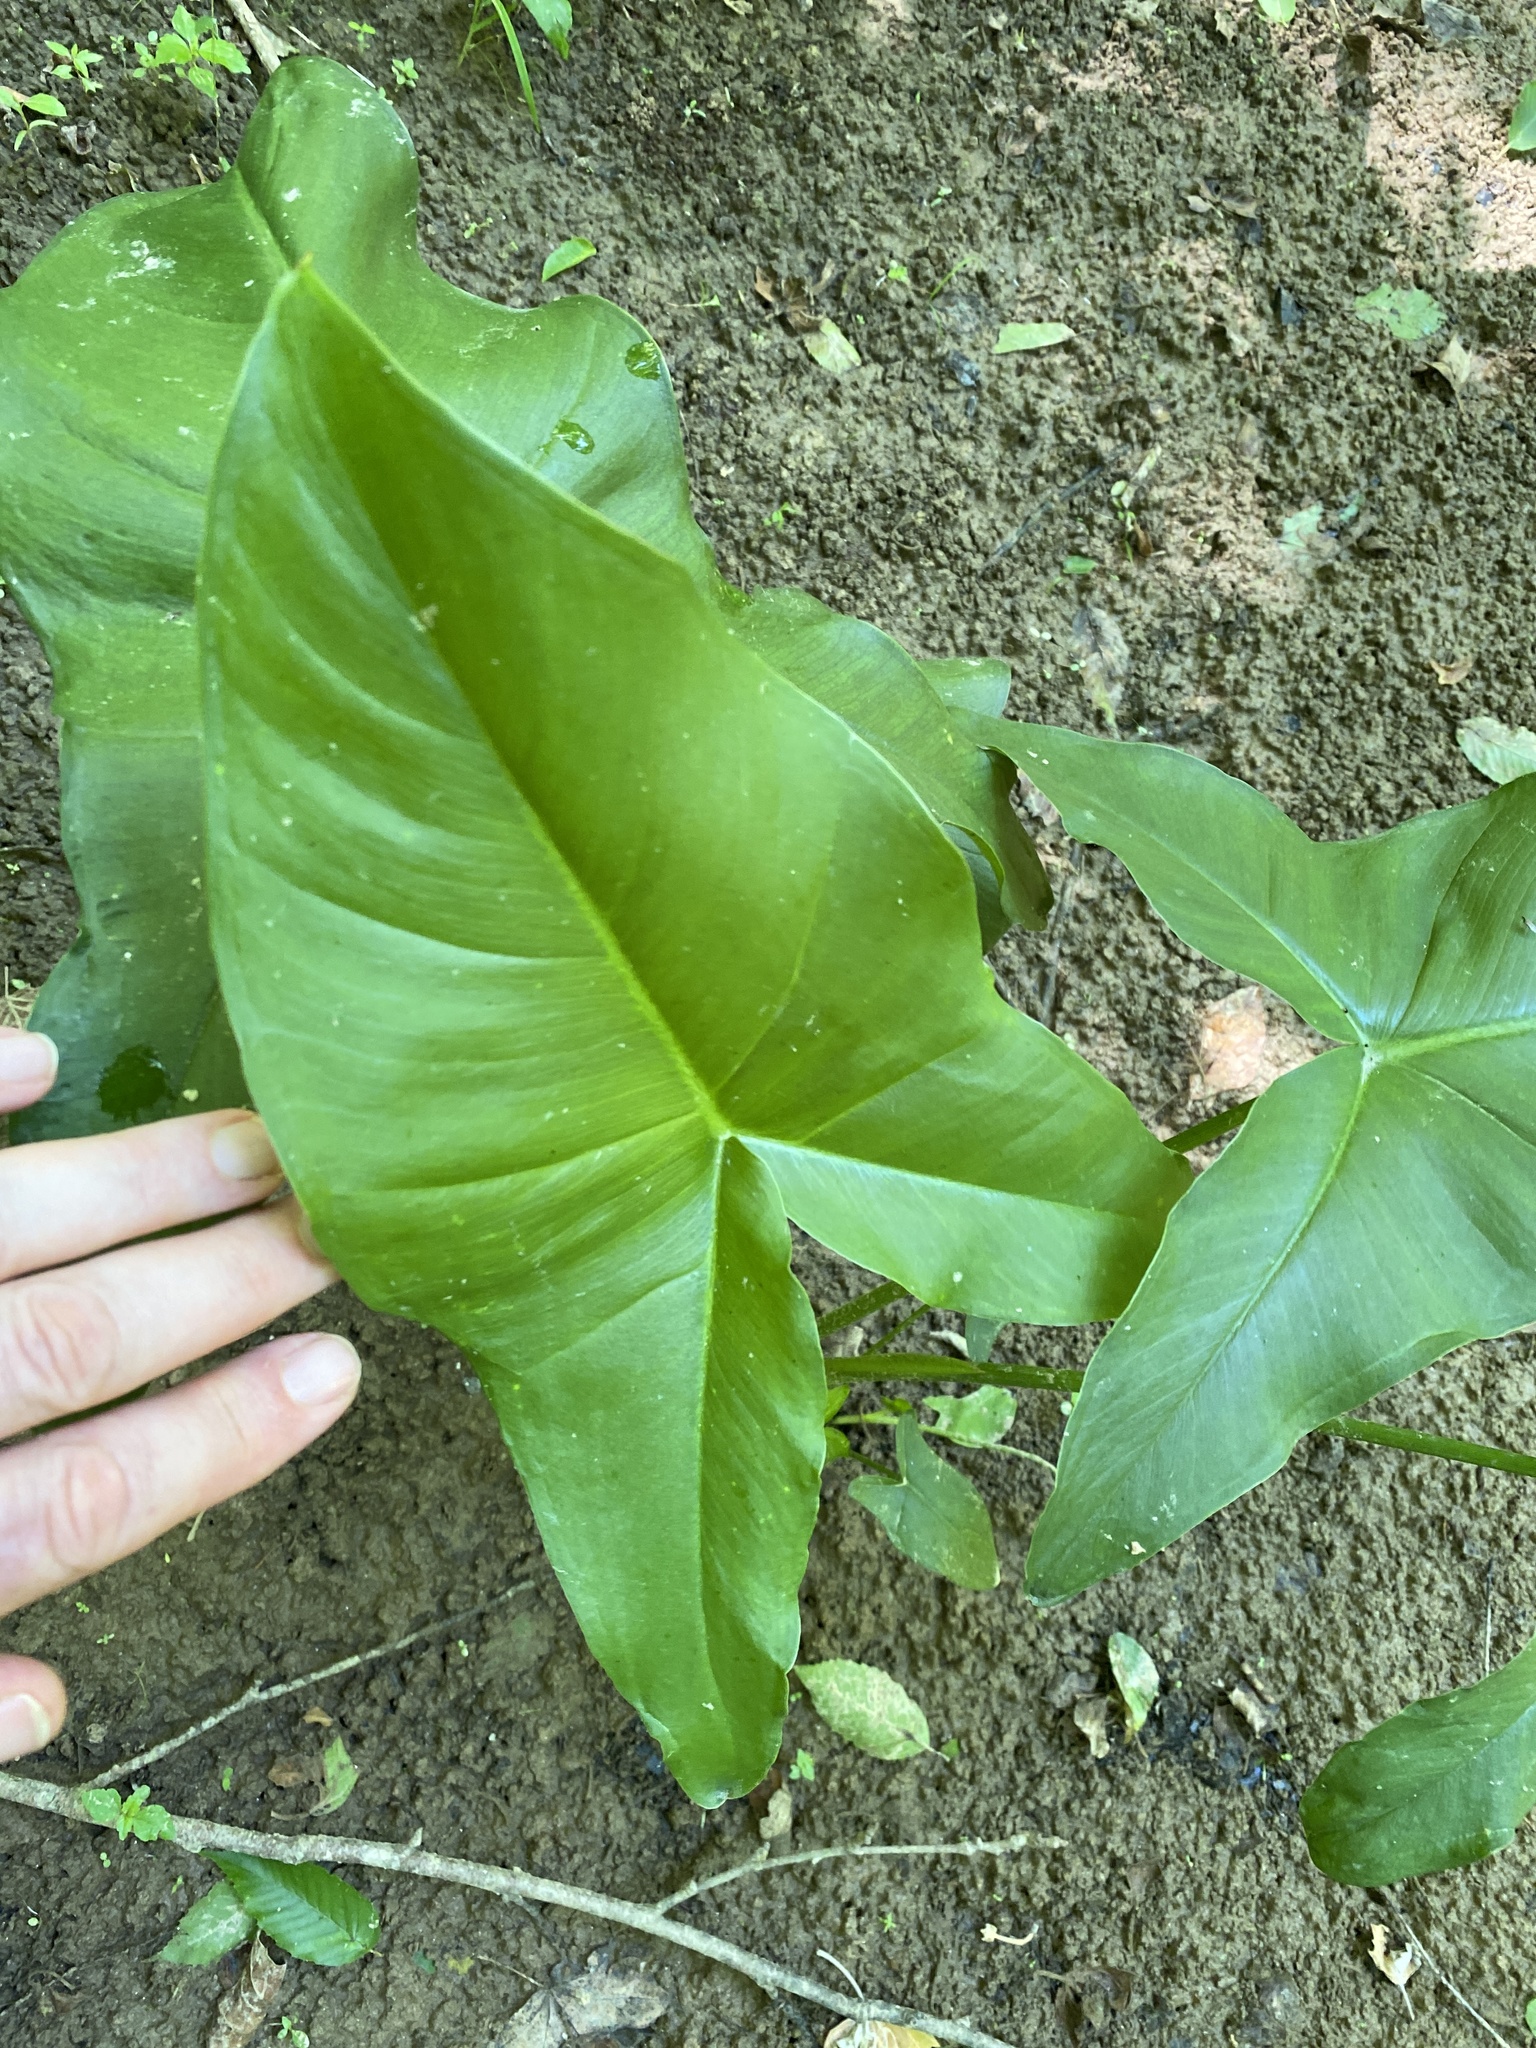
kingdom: Plantae
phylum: Tracheophyta
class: Liliopsida
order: Alismatales
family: Araceae
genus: Peltandra
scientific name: Peltandra virginica
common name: Arrow arum
